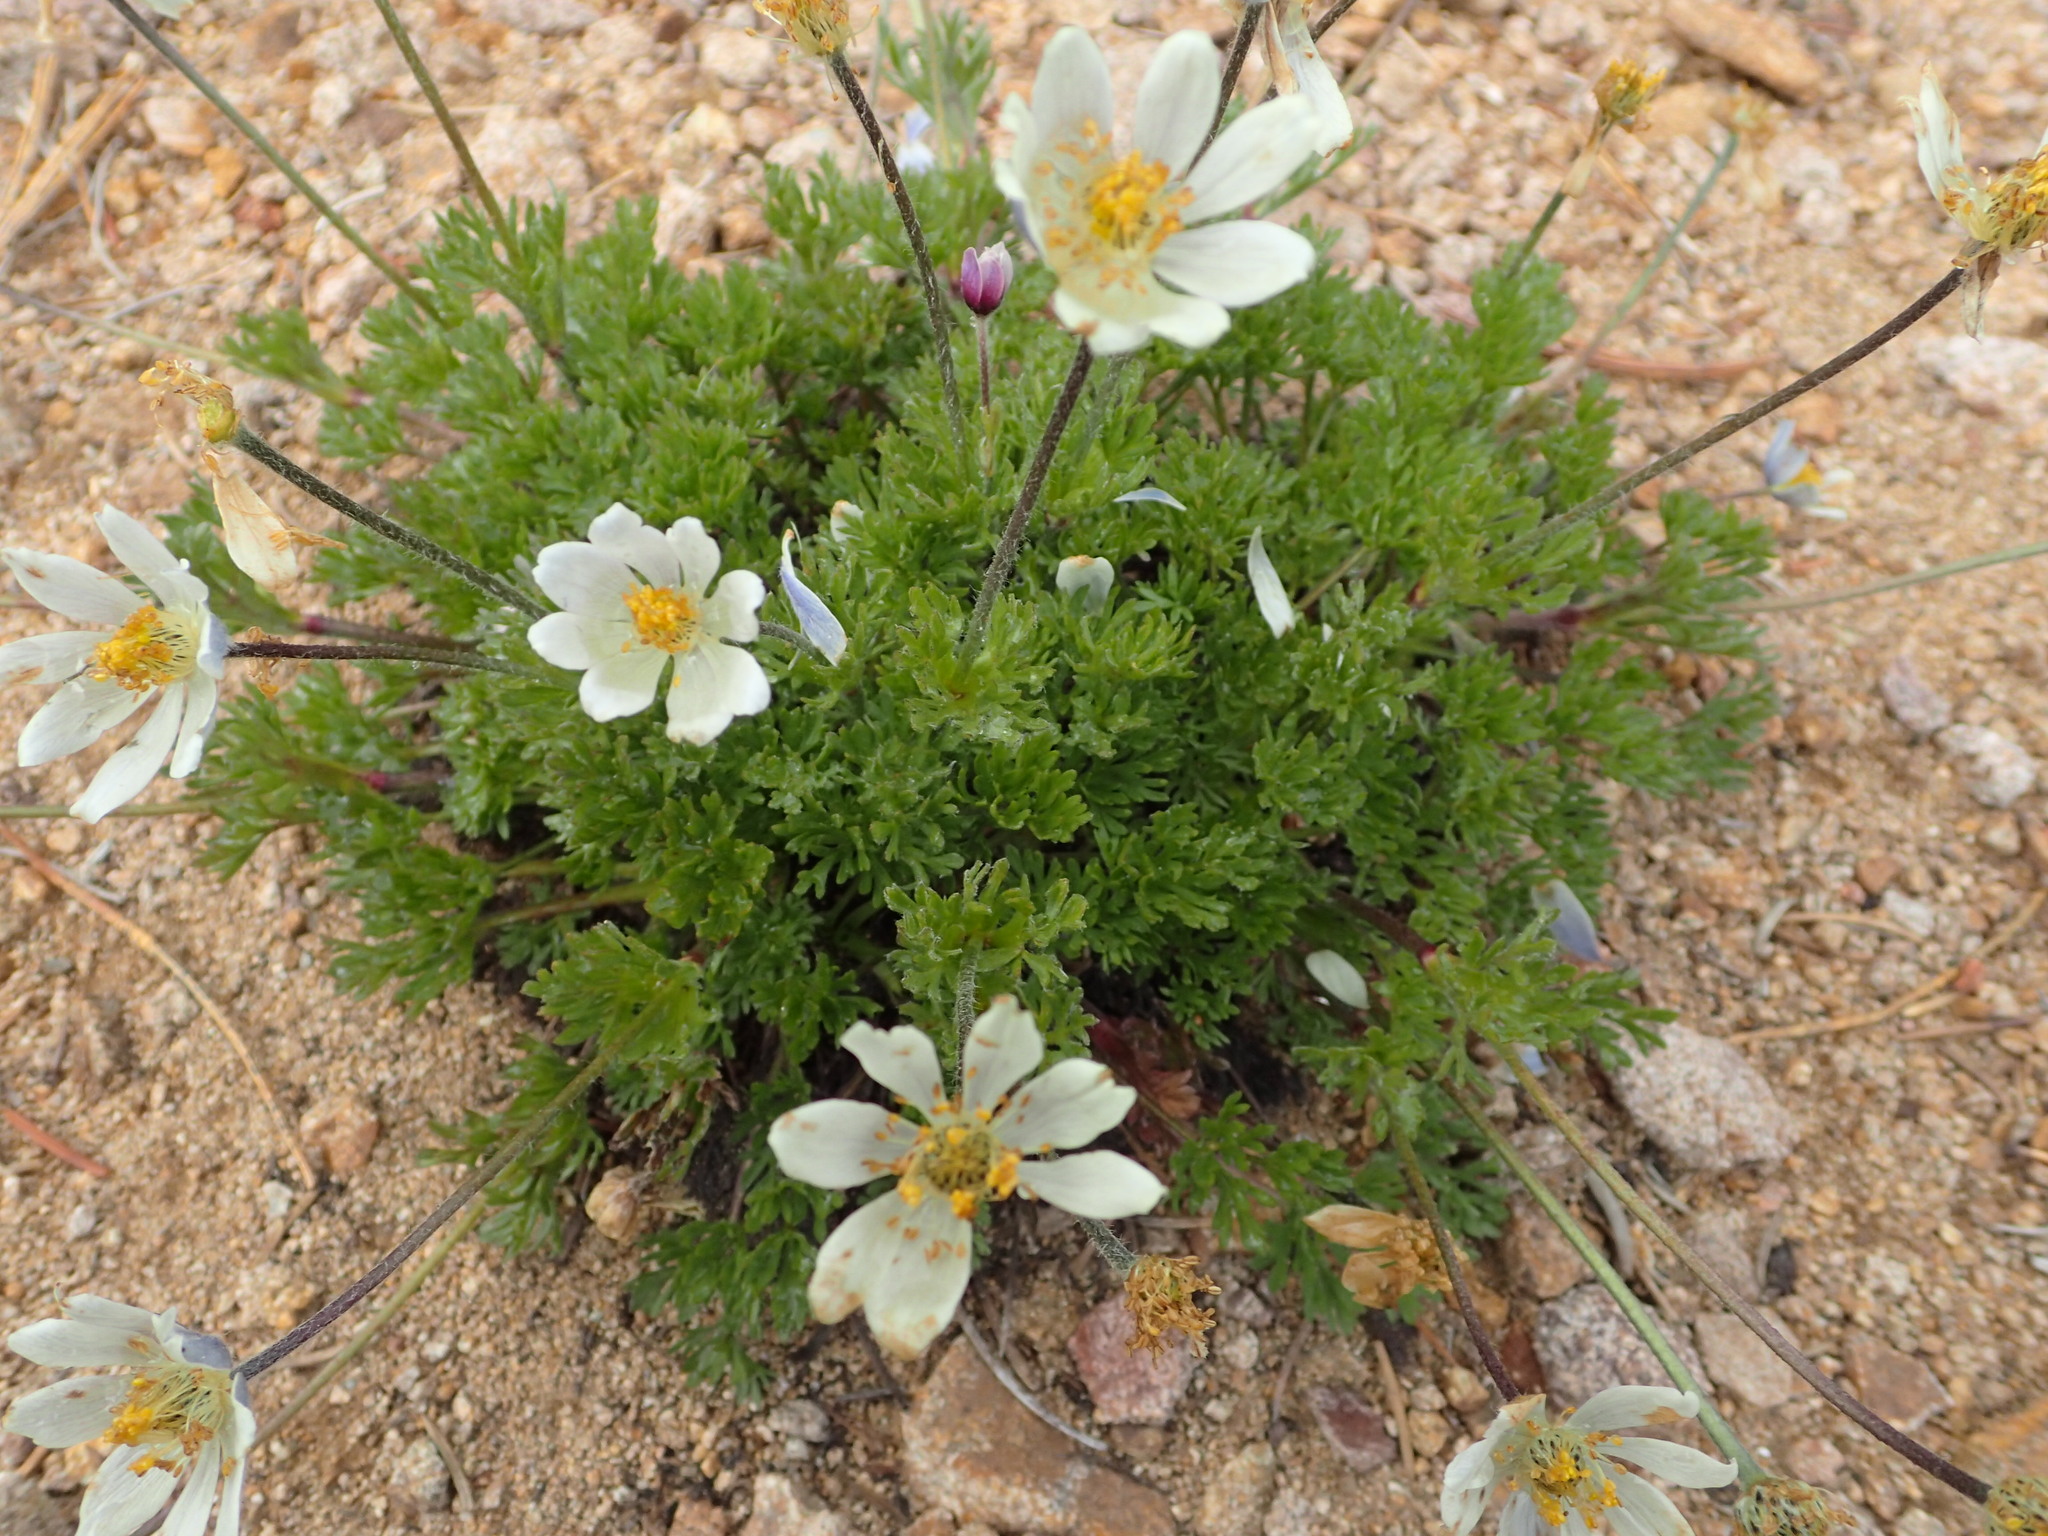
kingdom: Plantae
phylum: Tracheophyta
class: Magnoliopsida
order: Ranunculales
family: Ranunculaceae
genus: Pulsatilla
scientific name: Pulsatilla occidentalis
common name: Mountain pasqueflower
